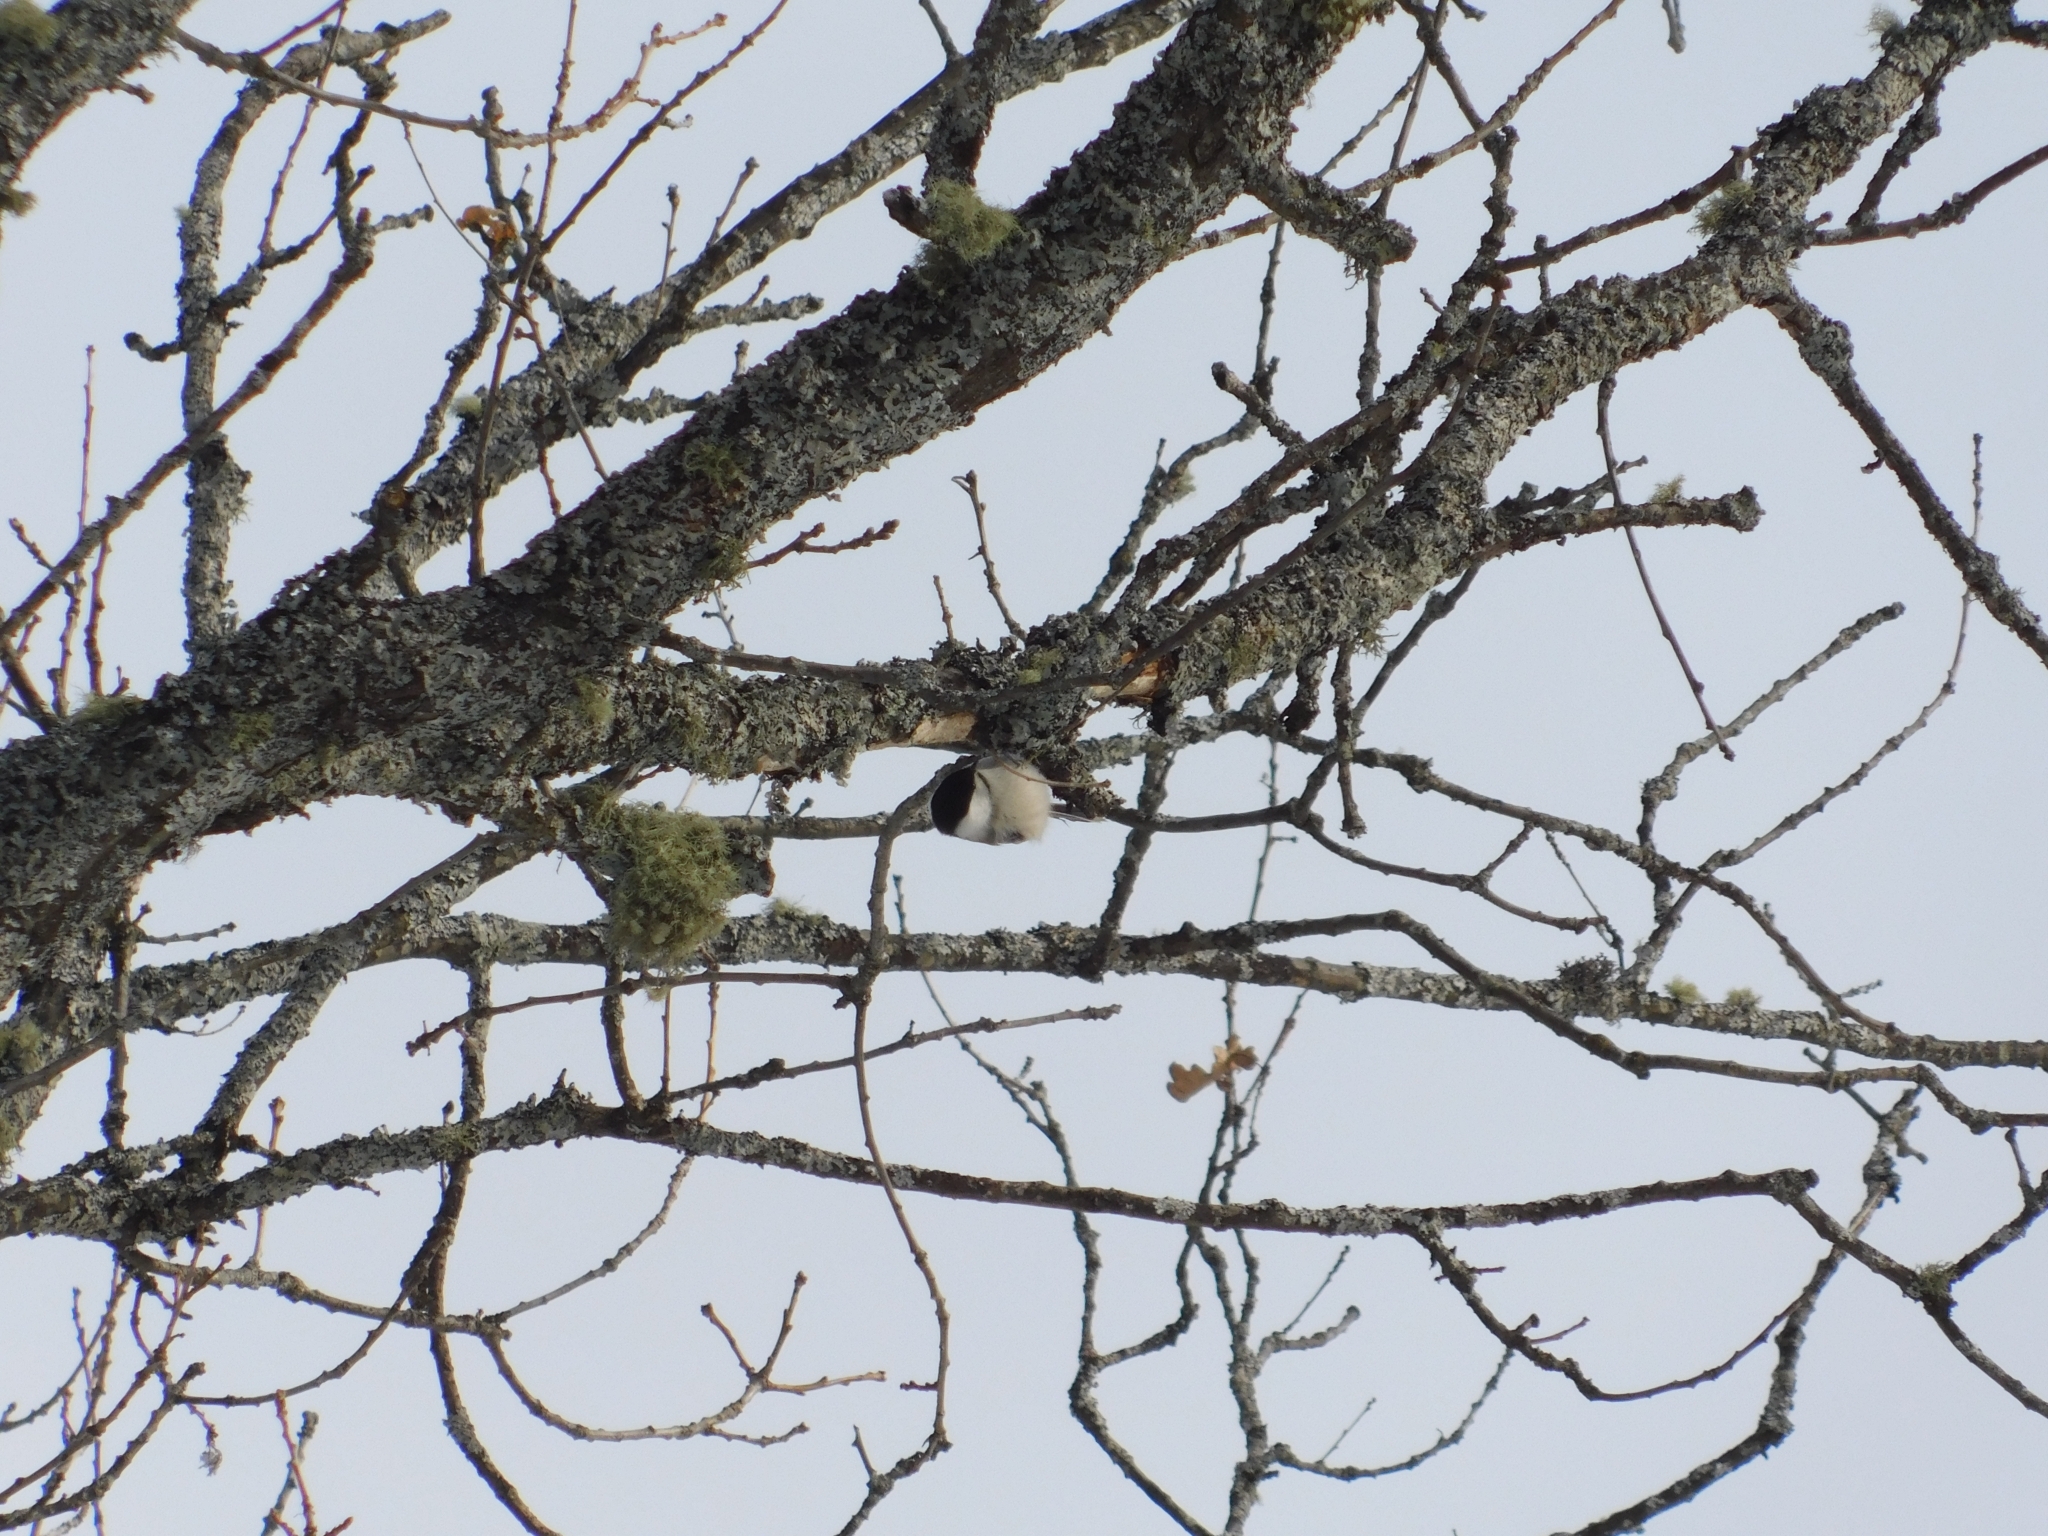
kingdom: Animalia
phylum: Chordata
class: Aves
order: Passeriformes
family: Paridae
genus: Poecile
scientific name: Poecile montanus
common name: Willow tit
